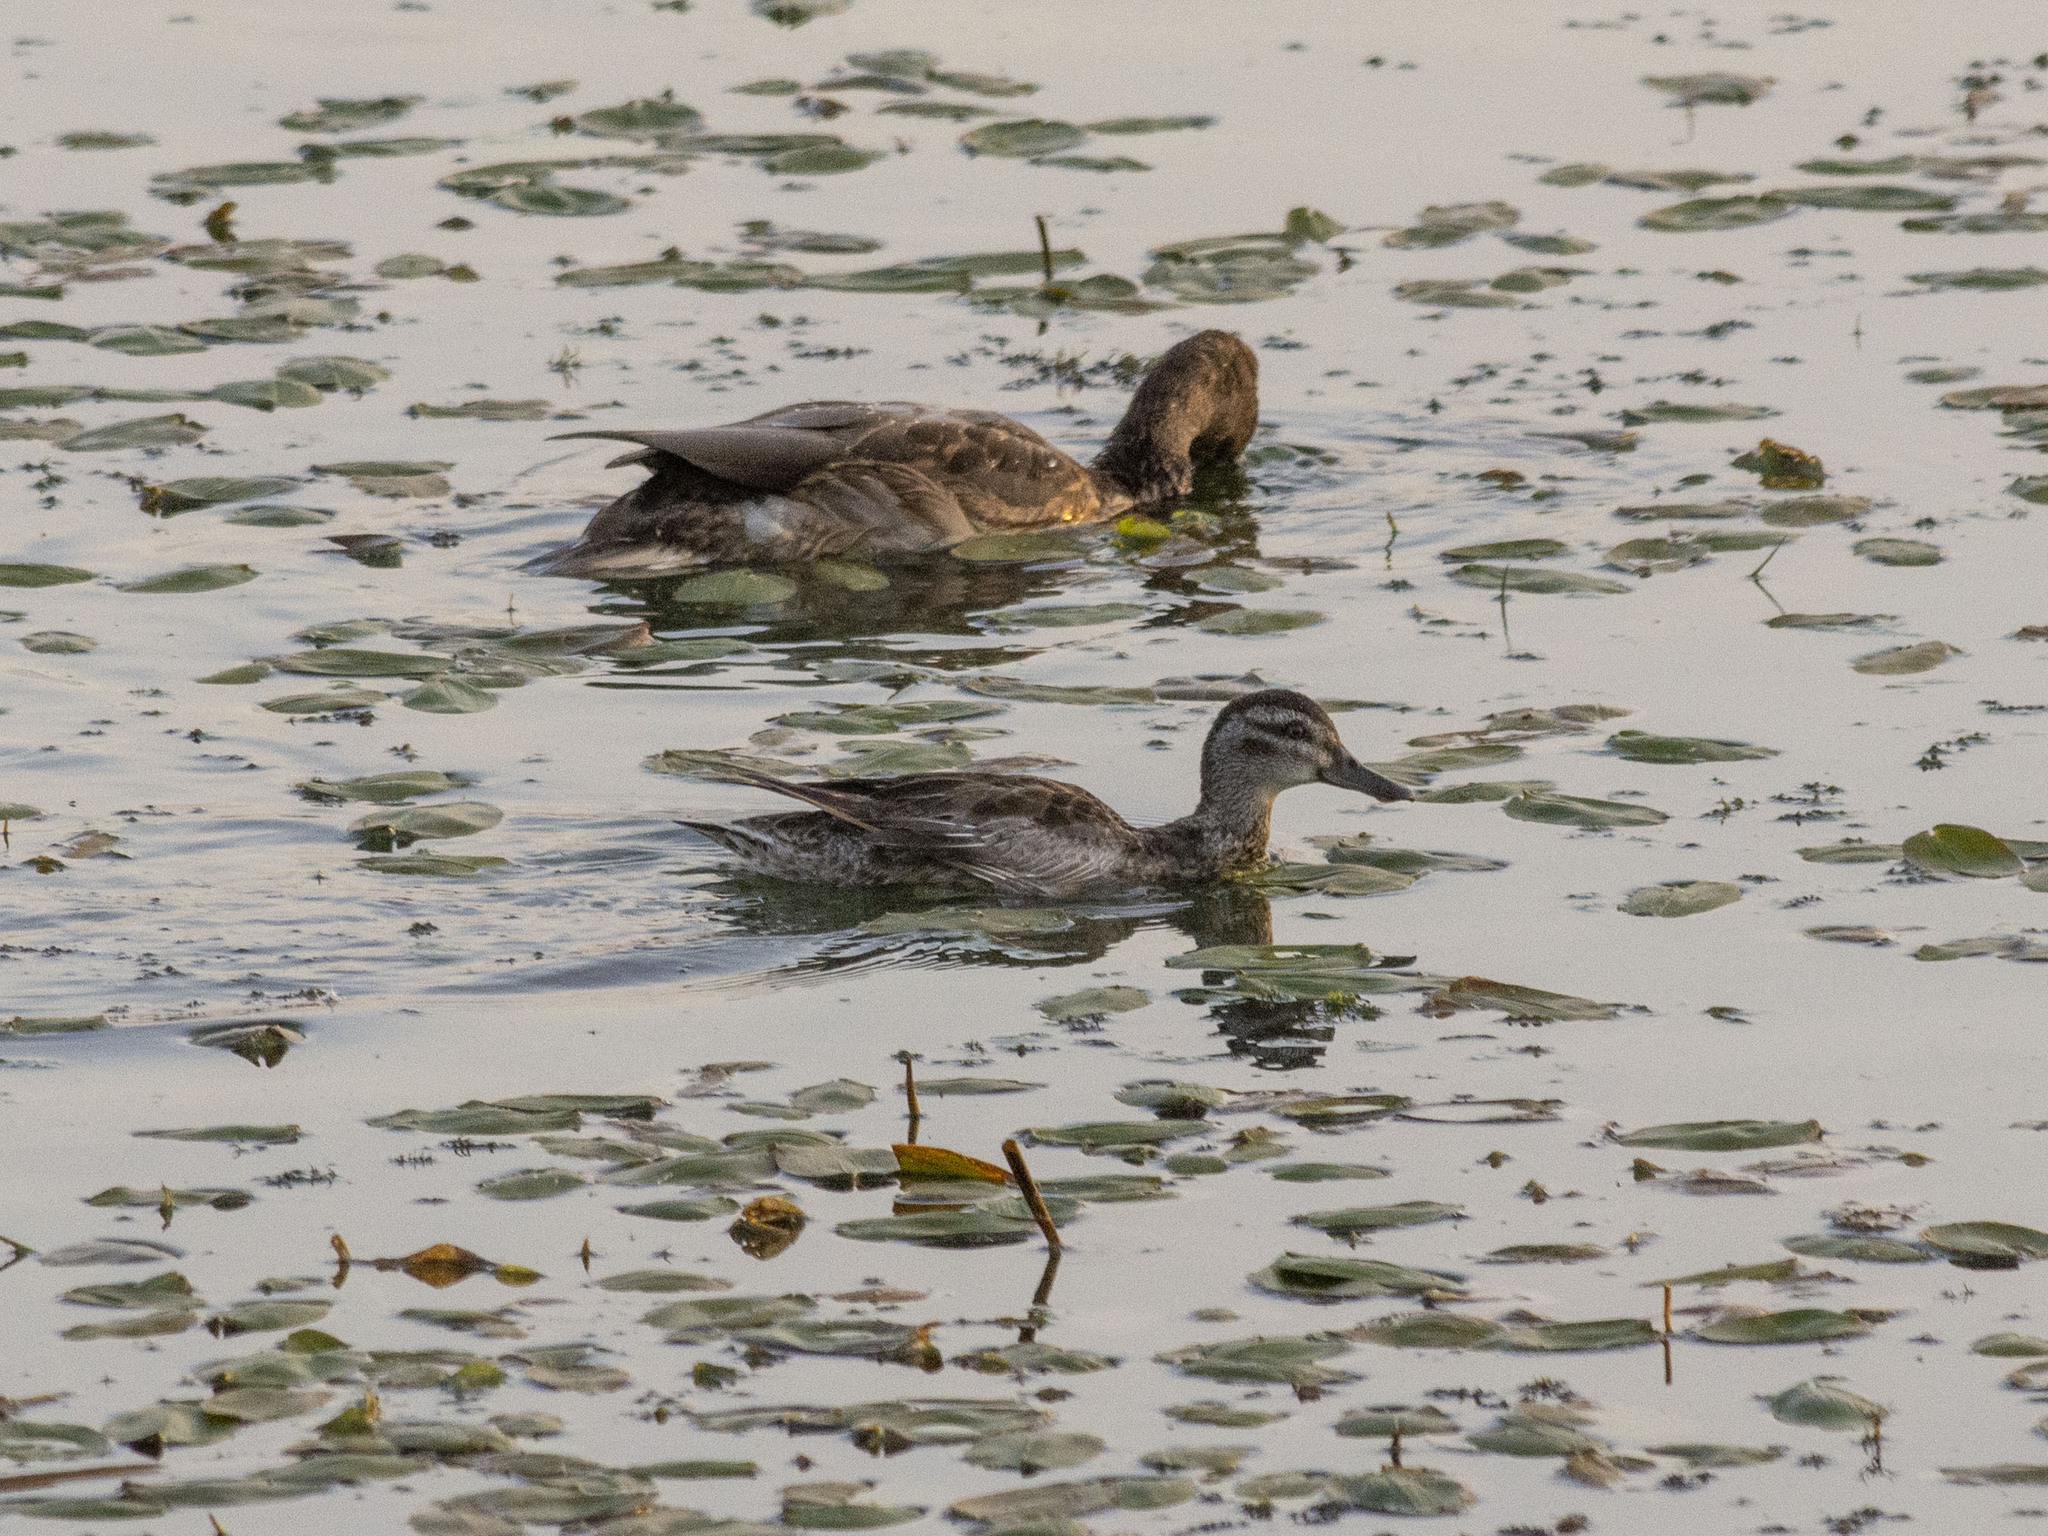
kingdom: Animalia
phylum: Chordata
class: Aves
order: Anseriformes
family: Anatidae
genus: Spatula
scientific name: Spatula querquedula
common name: Garganey
